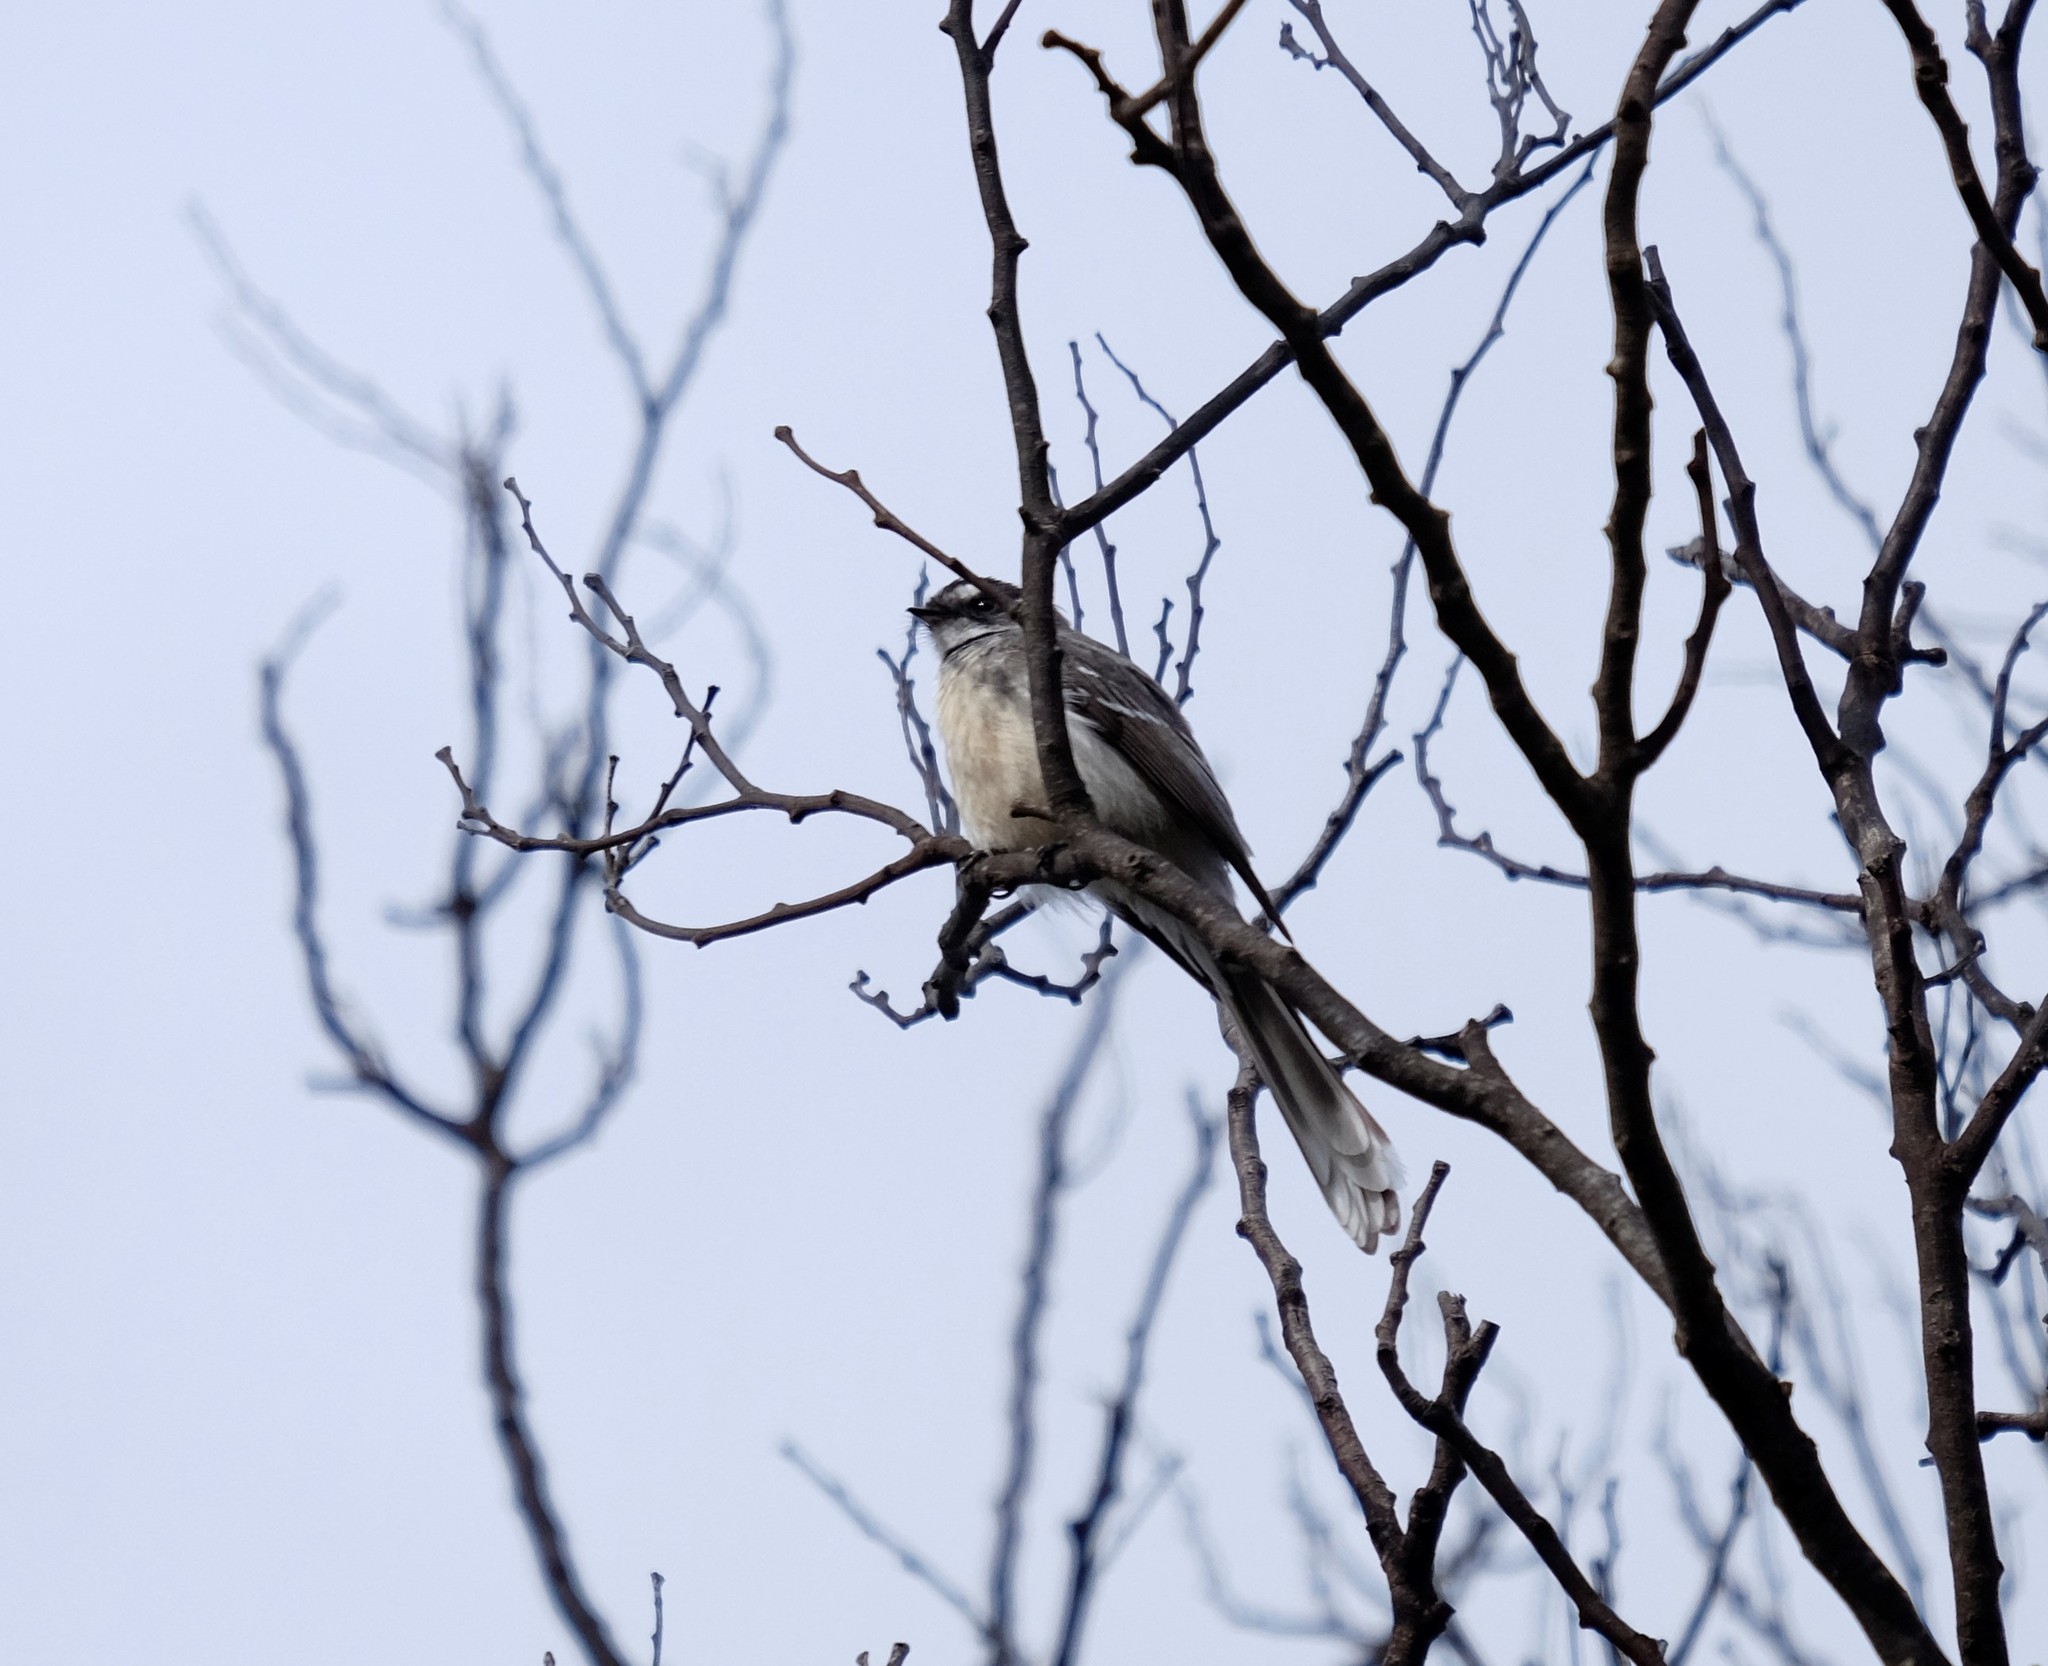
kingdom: Animalia
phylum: Chordata
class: Aves
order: Passeriformes
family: Rhipiduridae
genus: Rhipidura
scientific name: Rhipidura albiscapa
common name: Grey fantail
